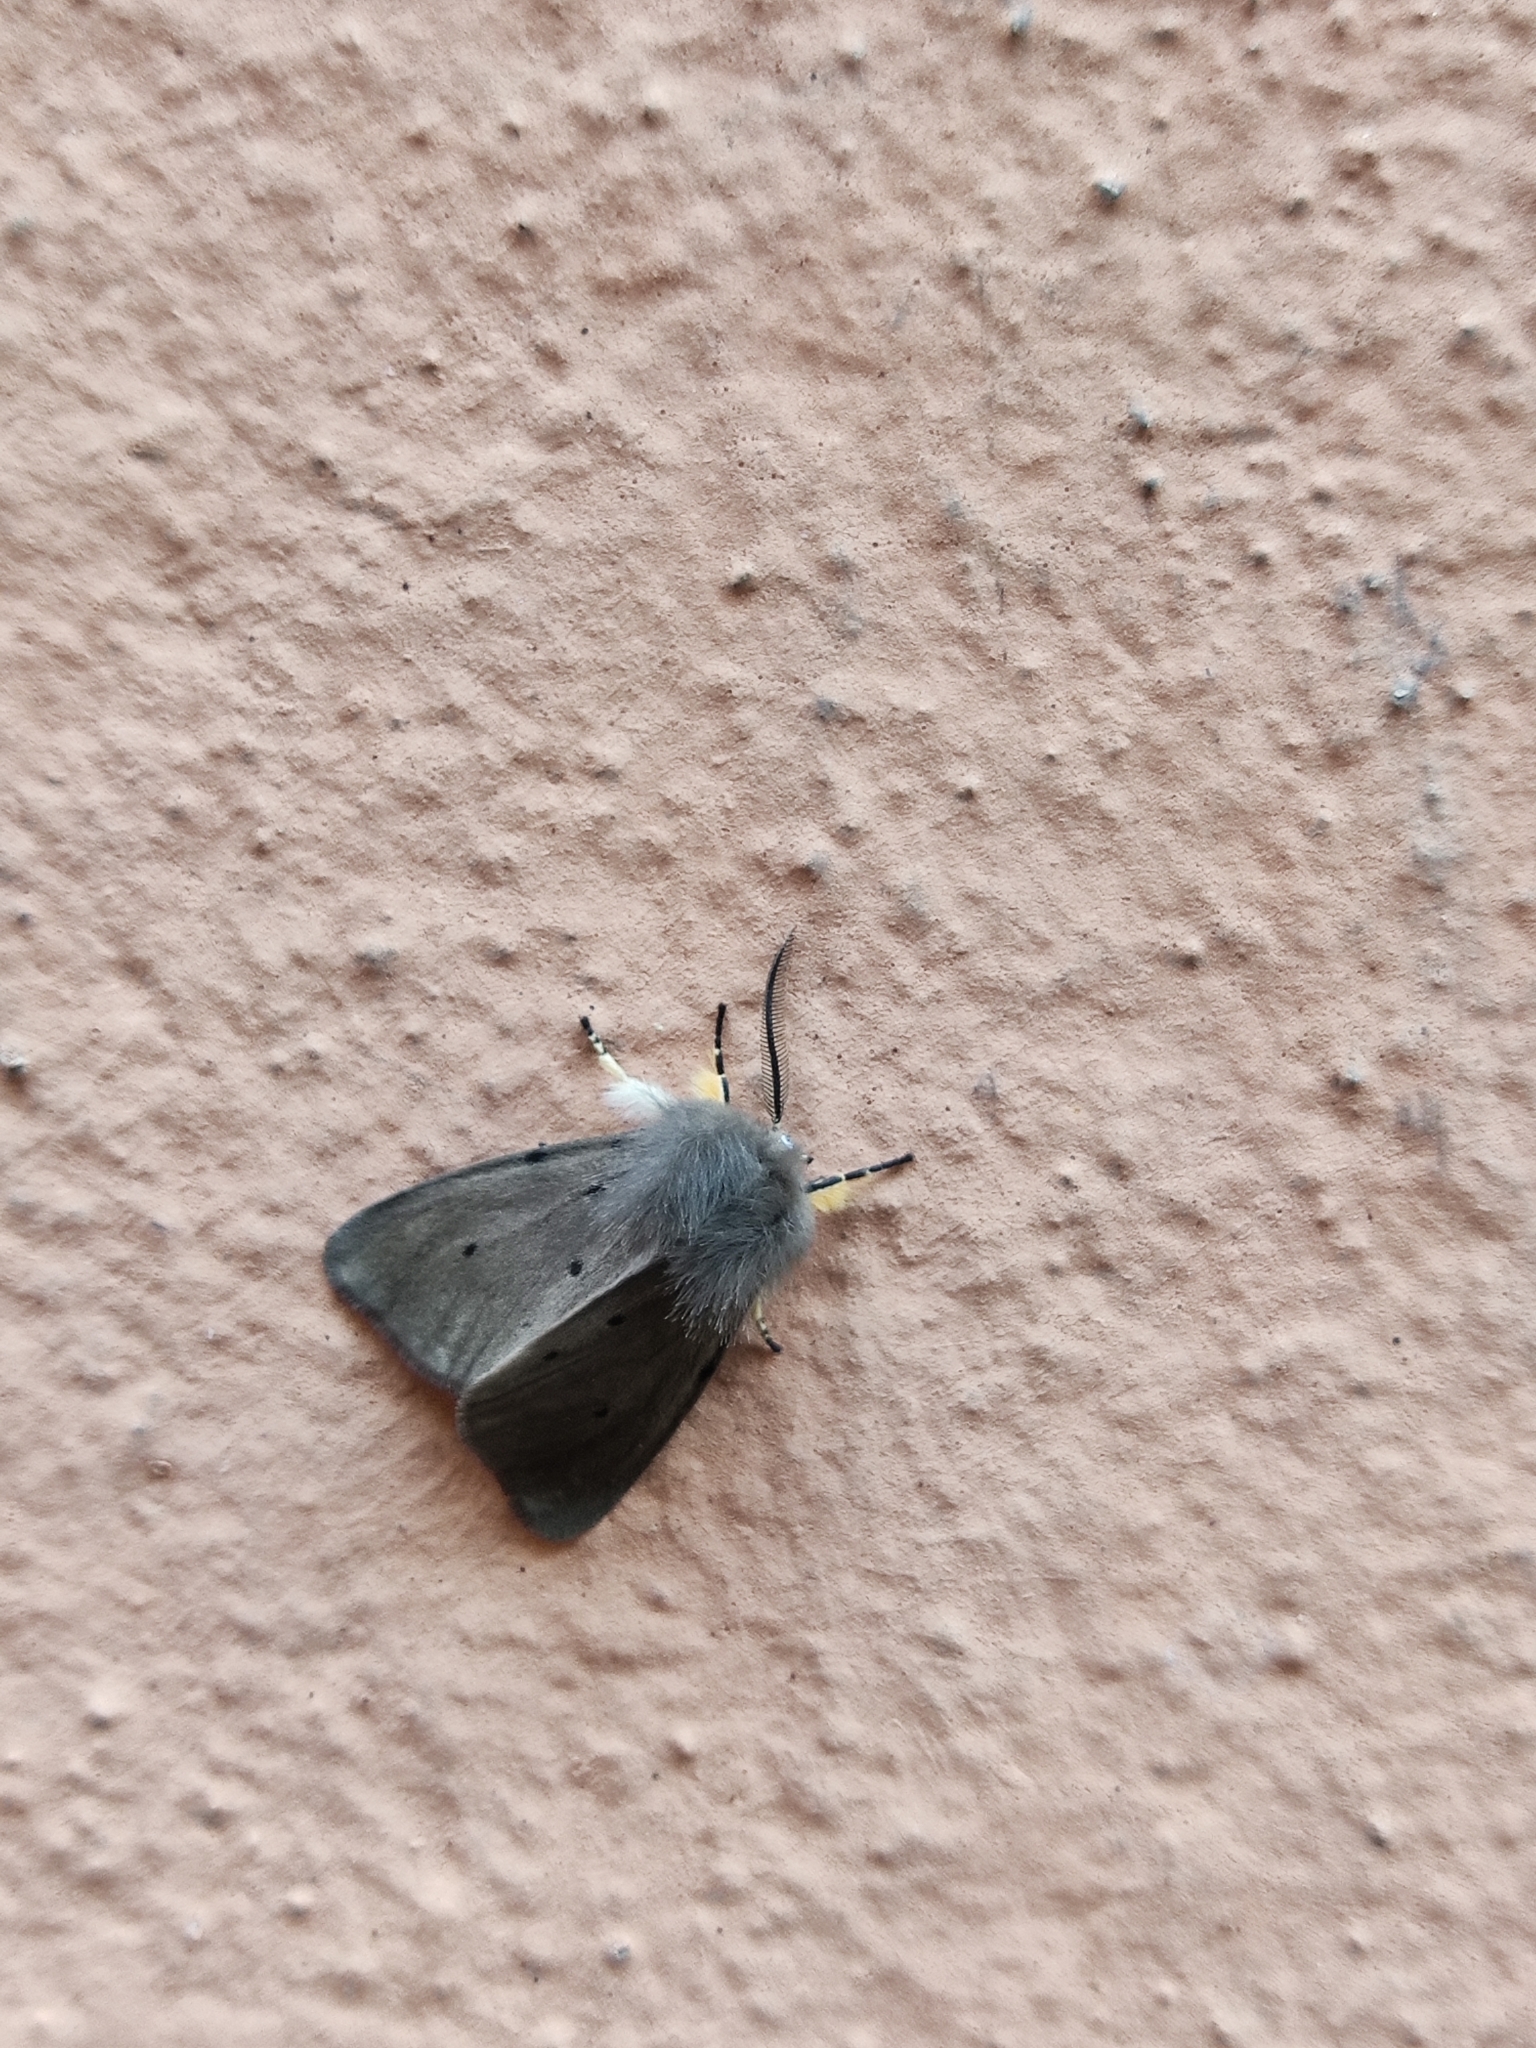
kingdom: Animalia
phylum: Arthropoda
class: Insecta
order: Lepidoptera
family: Erebidae
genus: Diaphora
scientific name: Diaphora mendica
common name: Muslin moth
